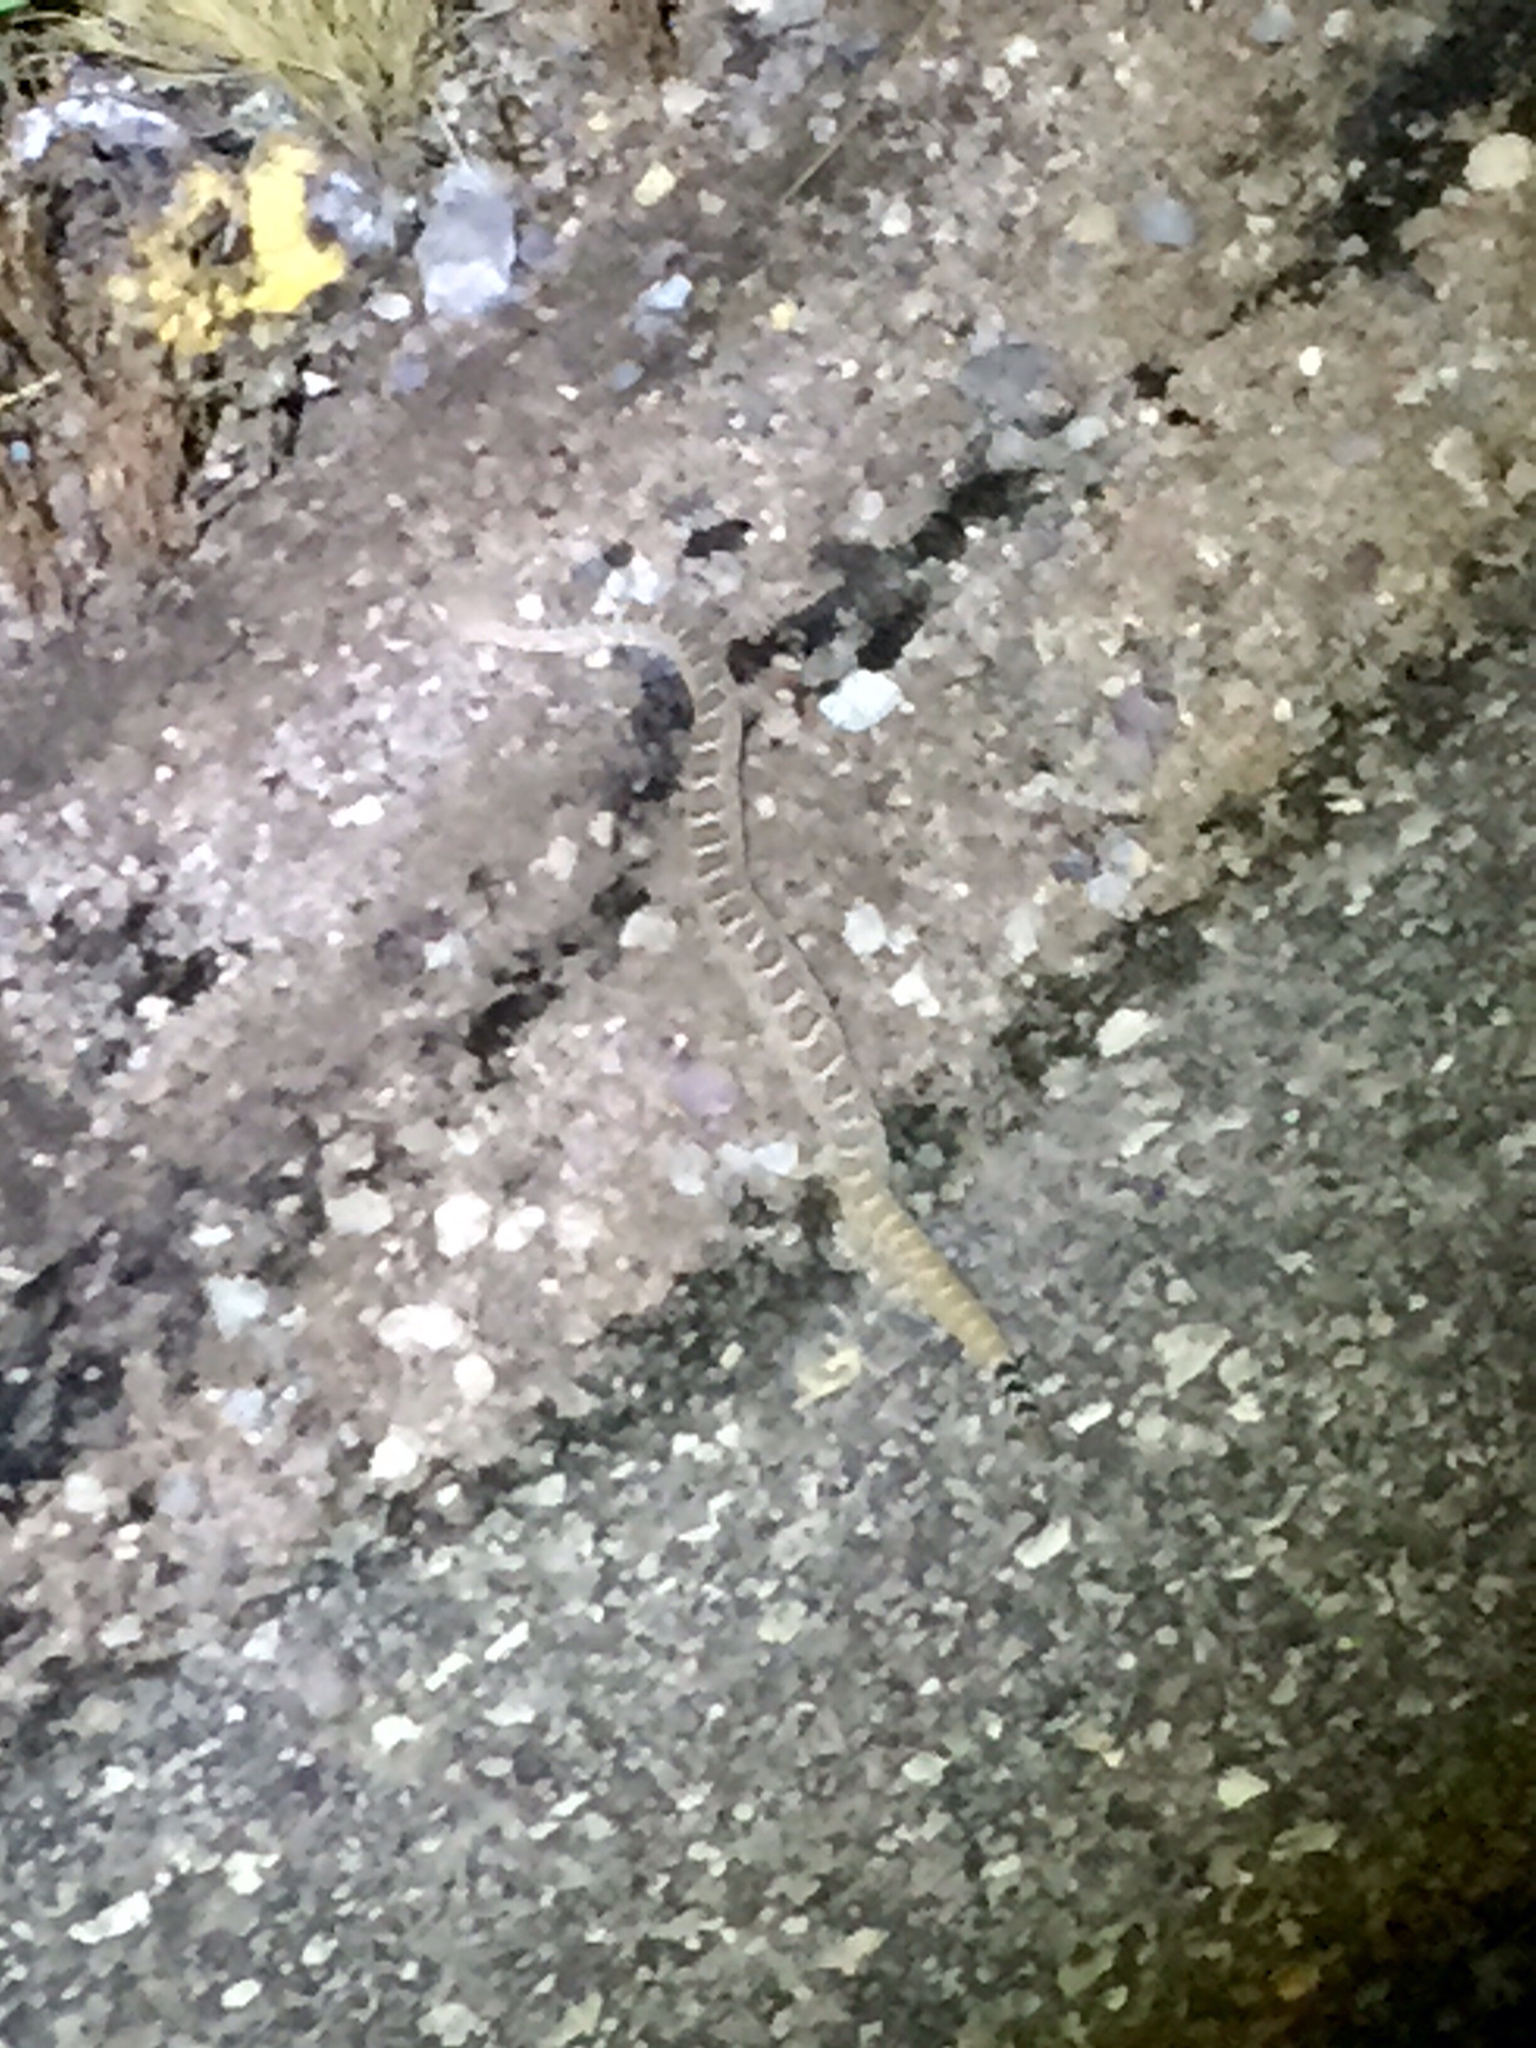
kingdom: Animalia
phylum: Chordata
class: Squamata
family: Viperidae
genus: Crotalus
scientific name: Crotalus atrox
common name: Western diamond-backed rattlesnake
